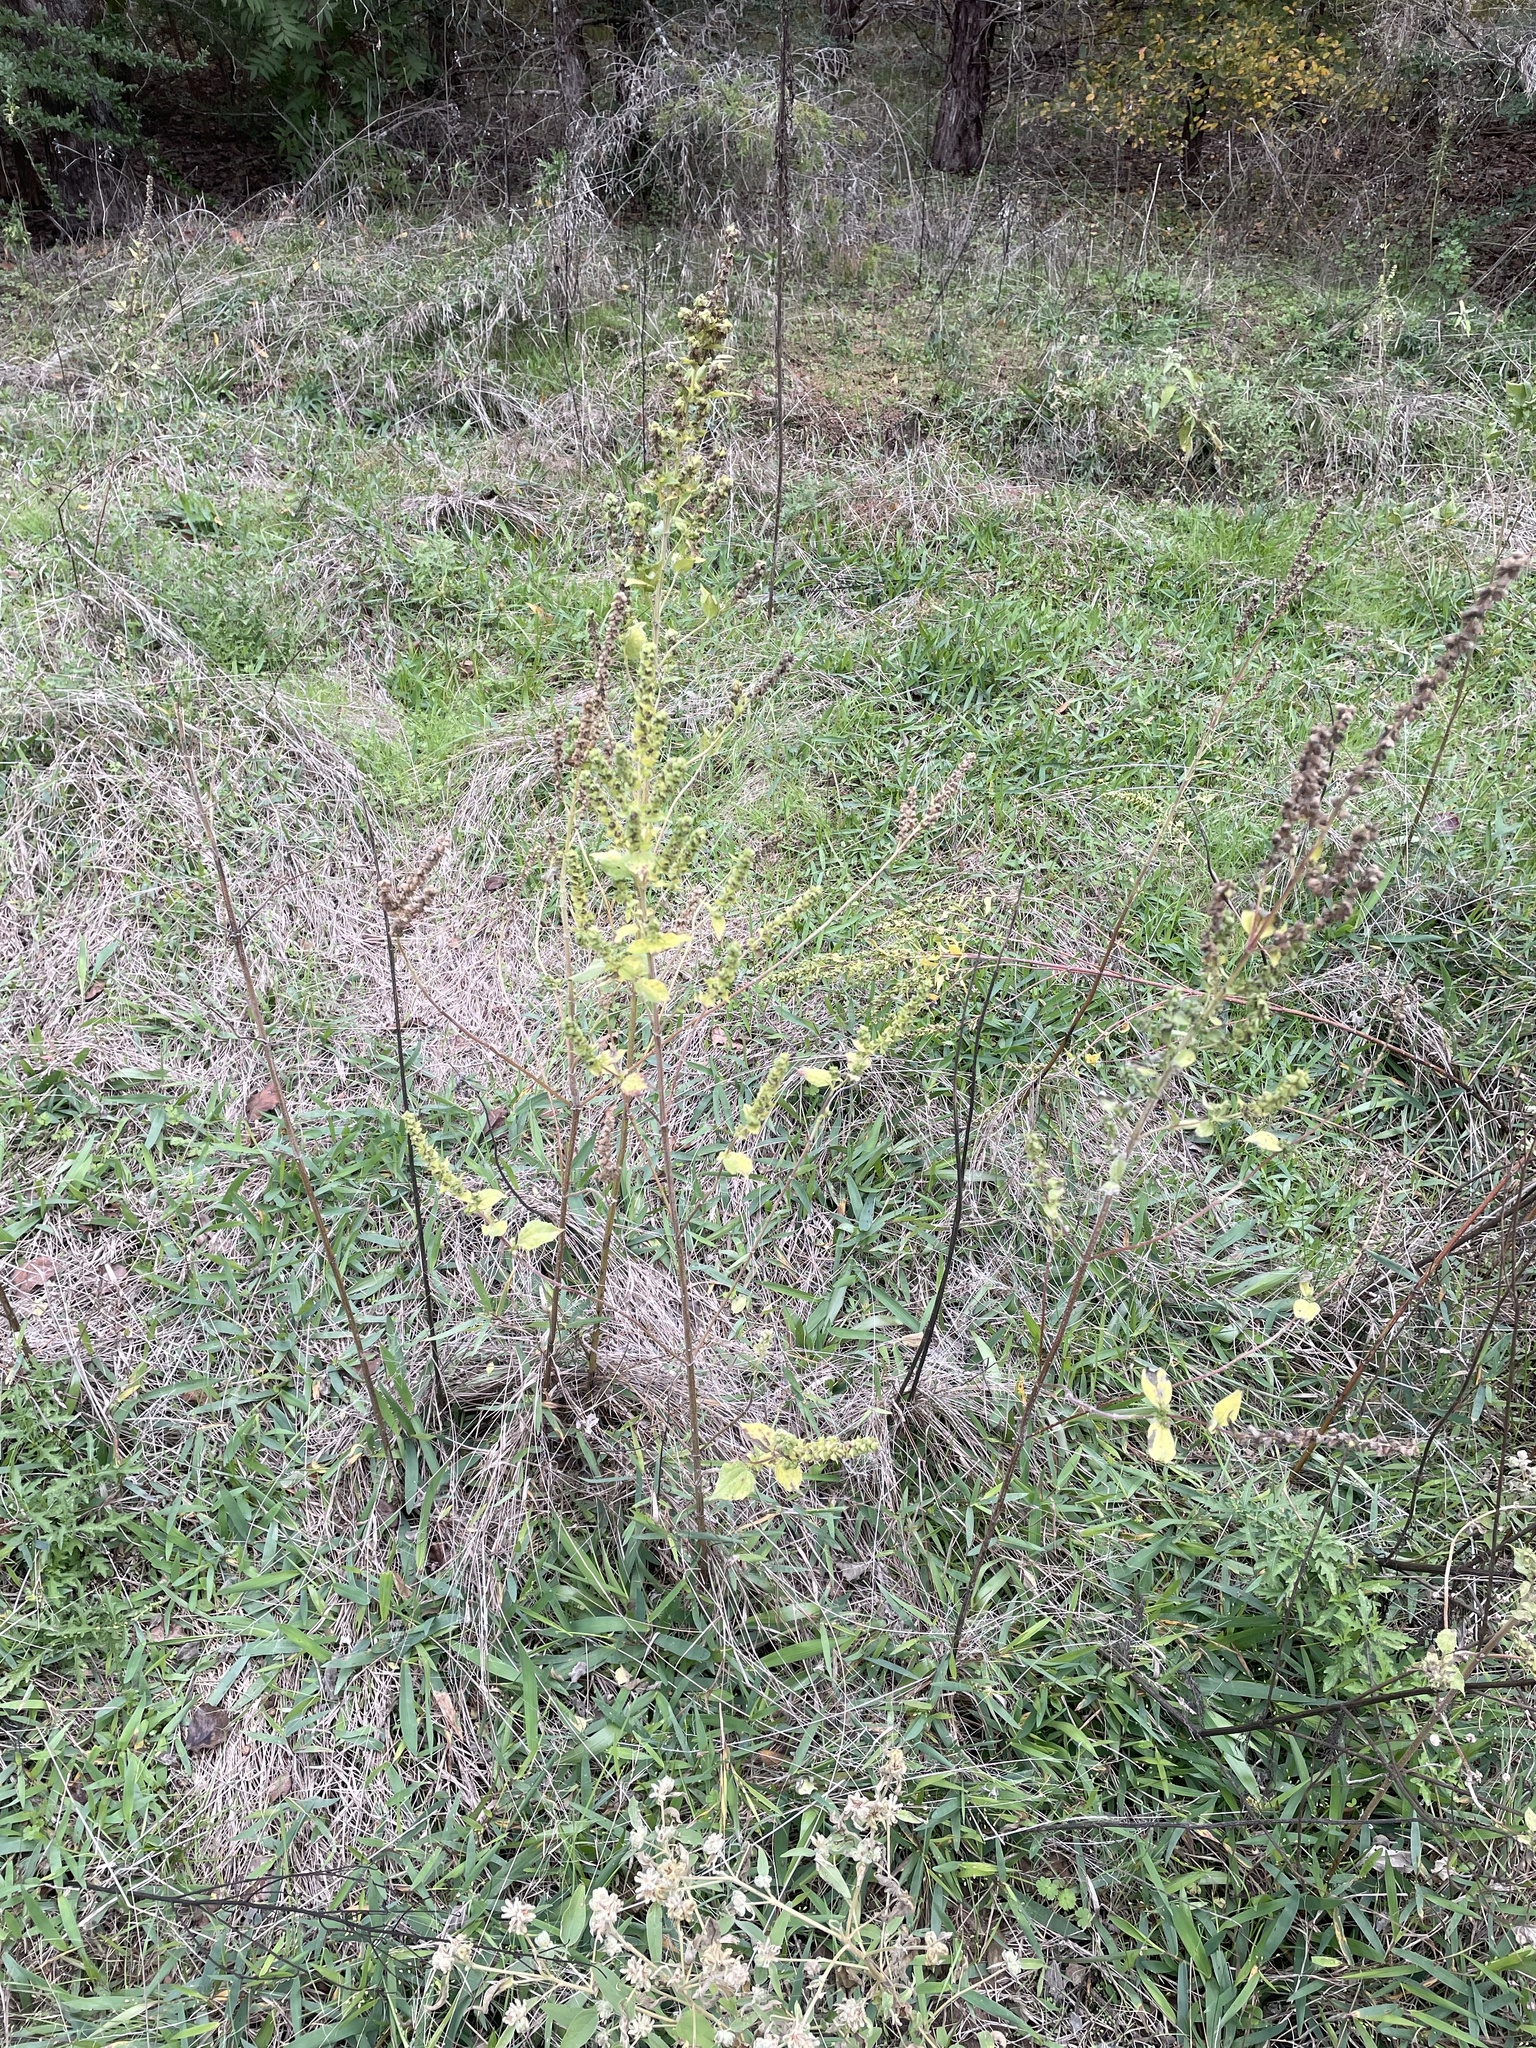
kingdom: Plantae
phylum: Tracheophyta
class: Magnoliopsida
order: Asterales
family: Asteraceae
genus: Iva
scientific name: Iva annua
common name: Marsh-elder
